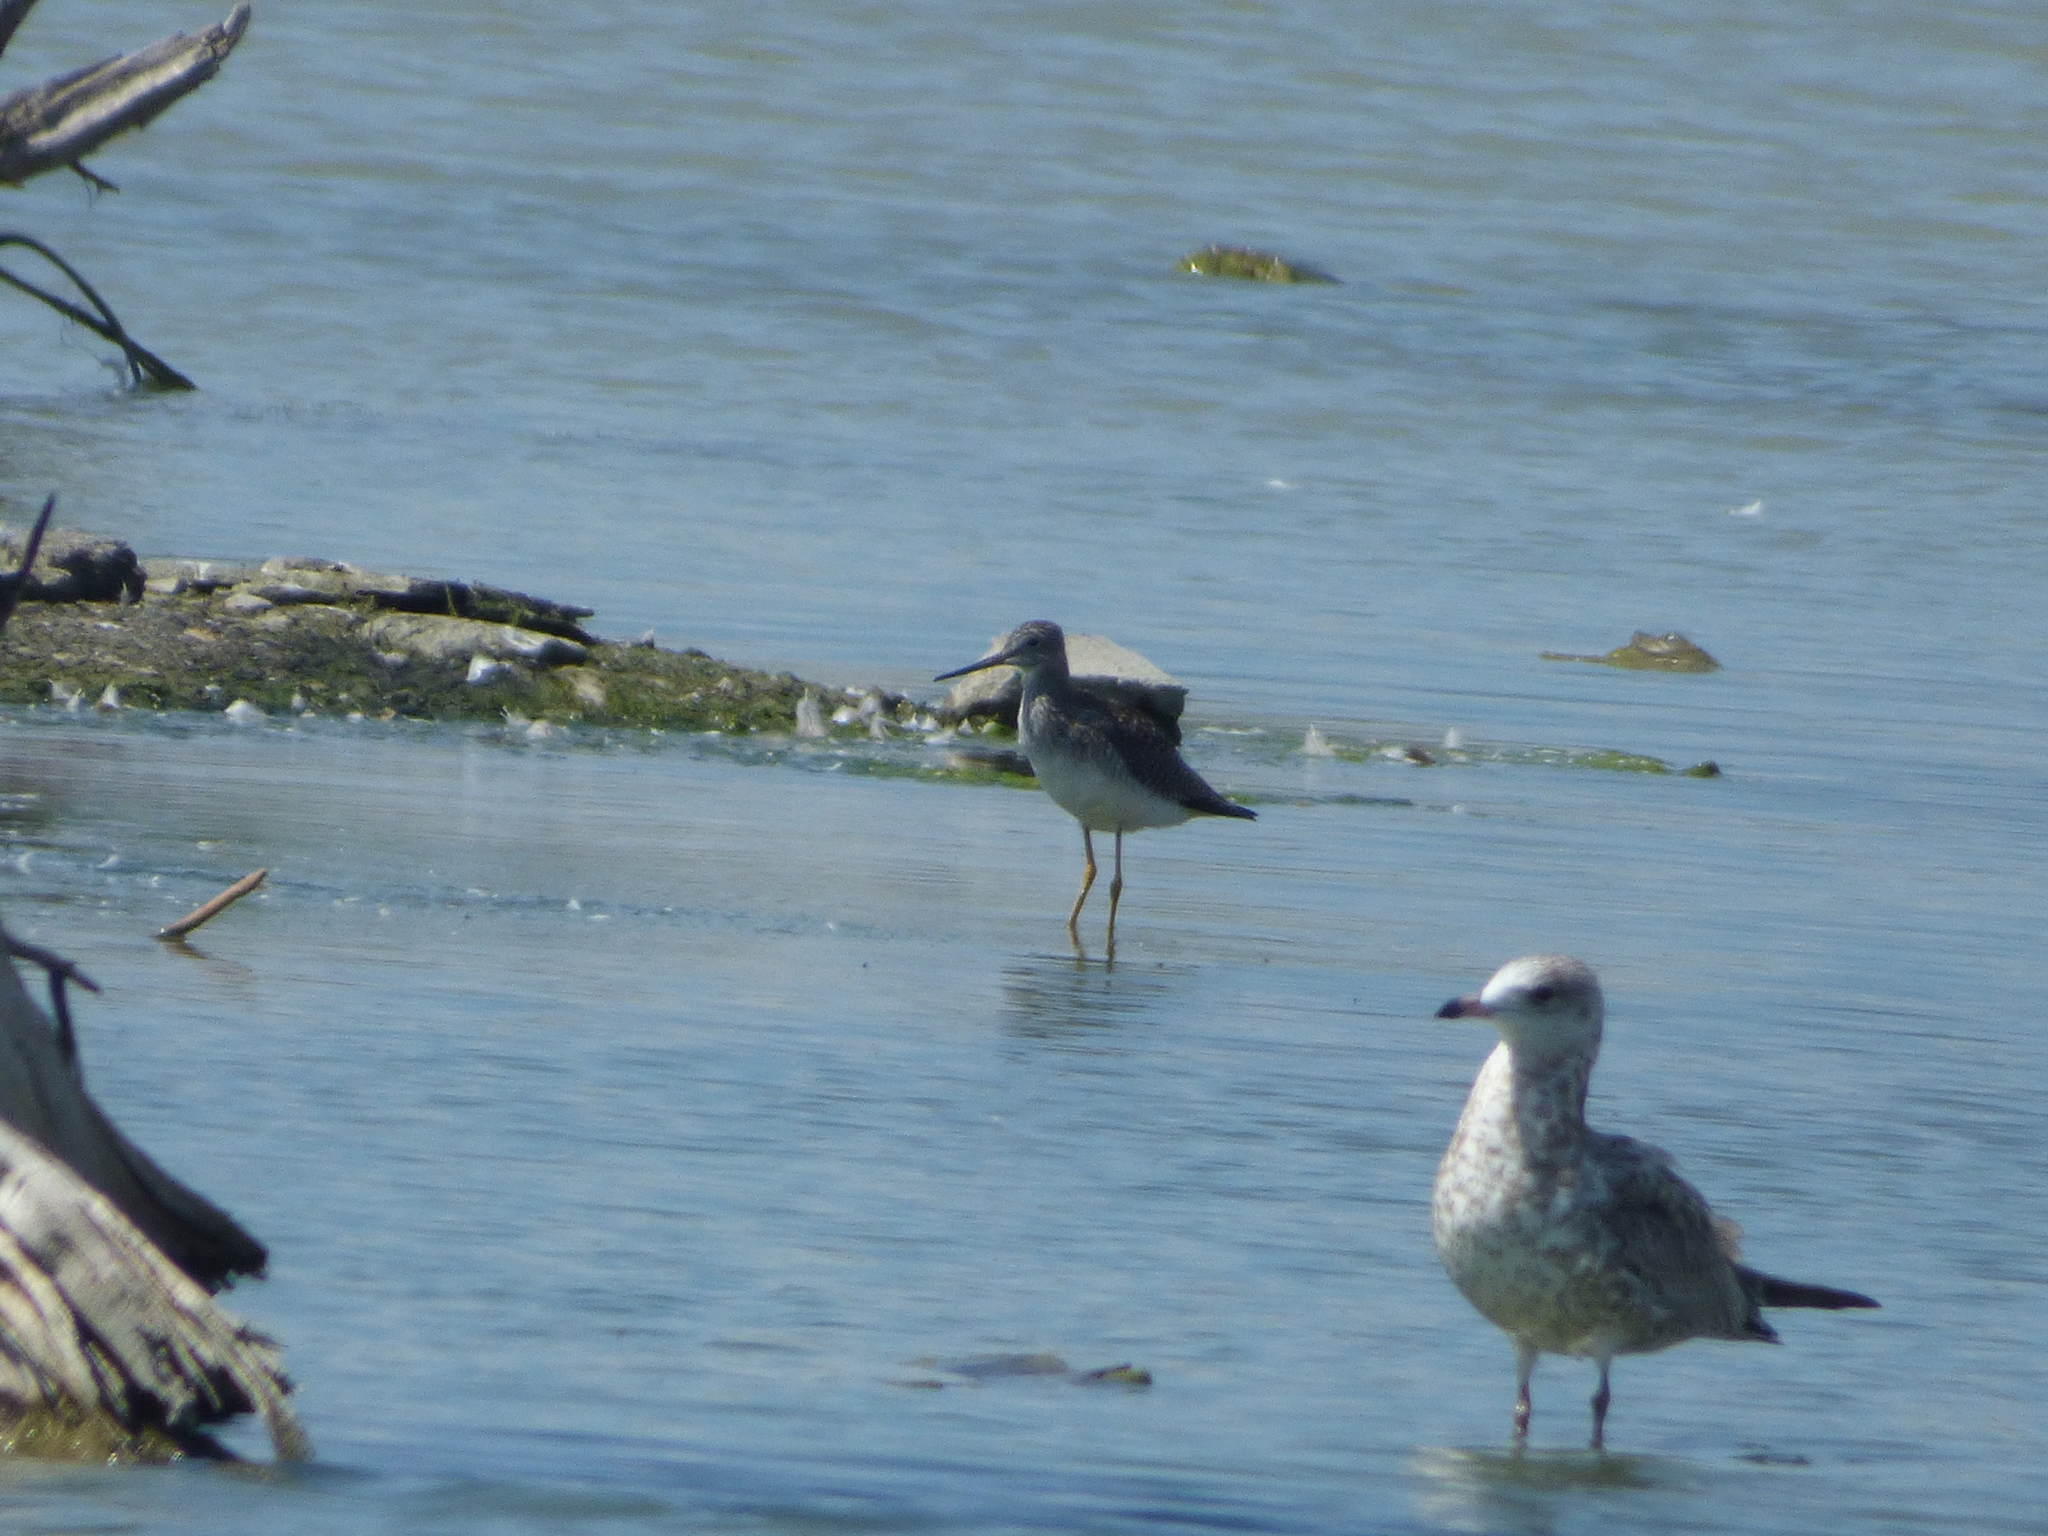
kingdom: Animalia
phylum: Chordata
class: Aves
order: Charadriiformes
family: Scolopacidae
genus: Tringa
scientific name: Tringa melanoleuca
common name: Greater yellowlegs
